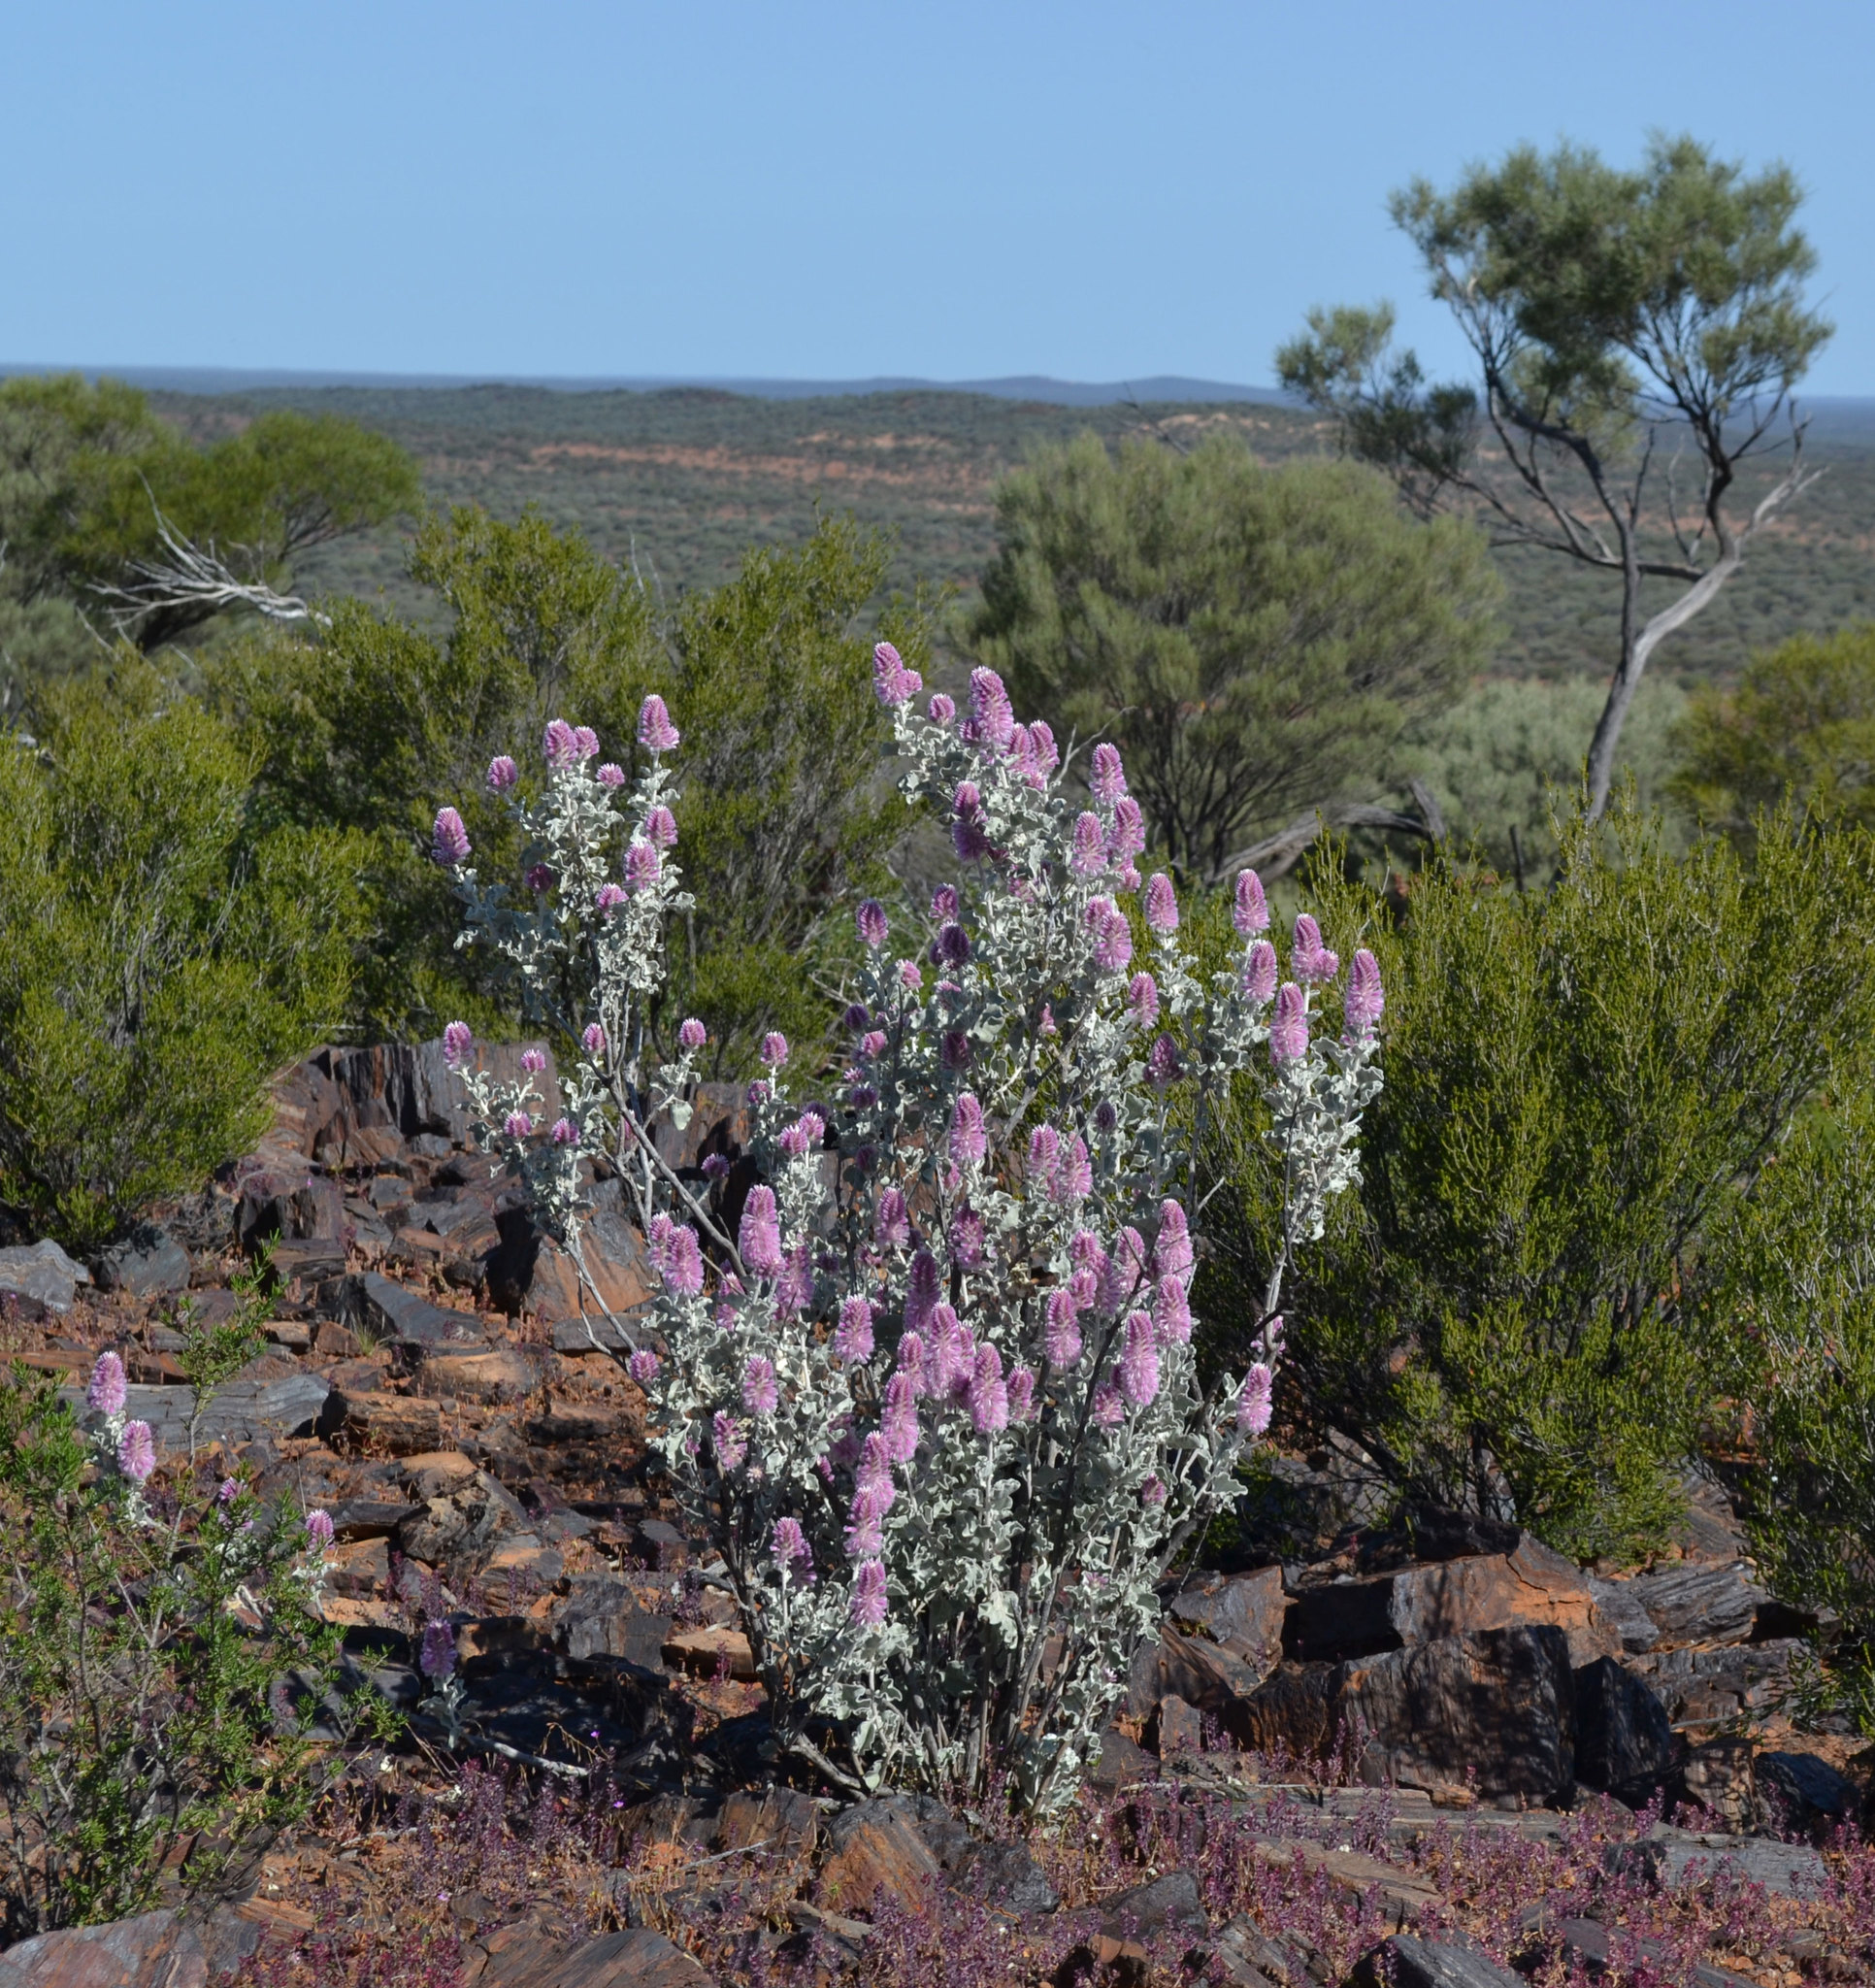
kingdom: Plantae
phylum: Tracheophyta
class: Magnoliopsida
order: Caryophyllales
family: Amaranthaceae
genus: Ptilotus
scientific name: Ptilotus rotundifolius
